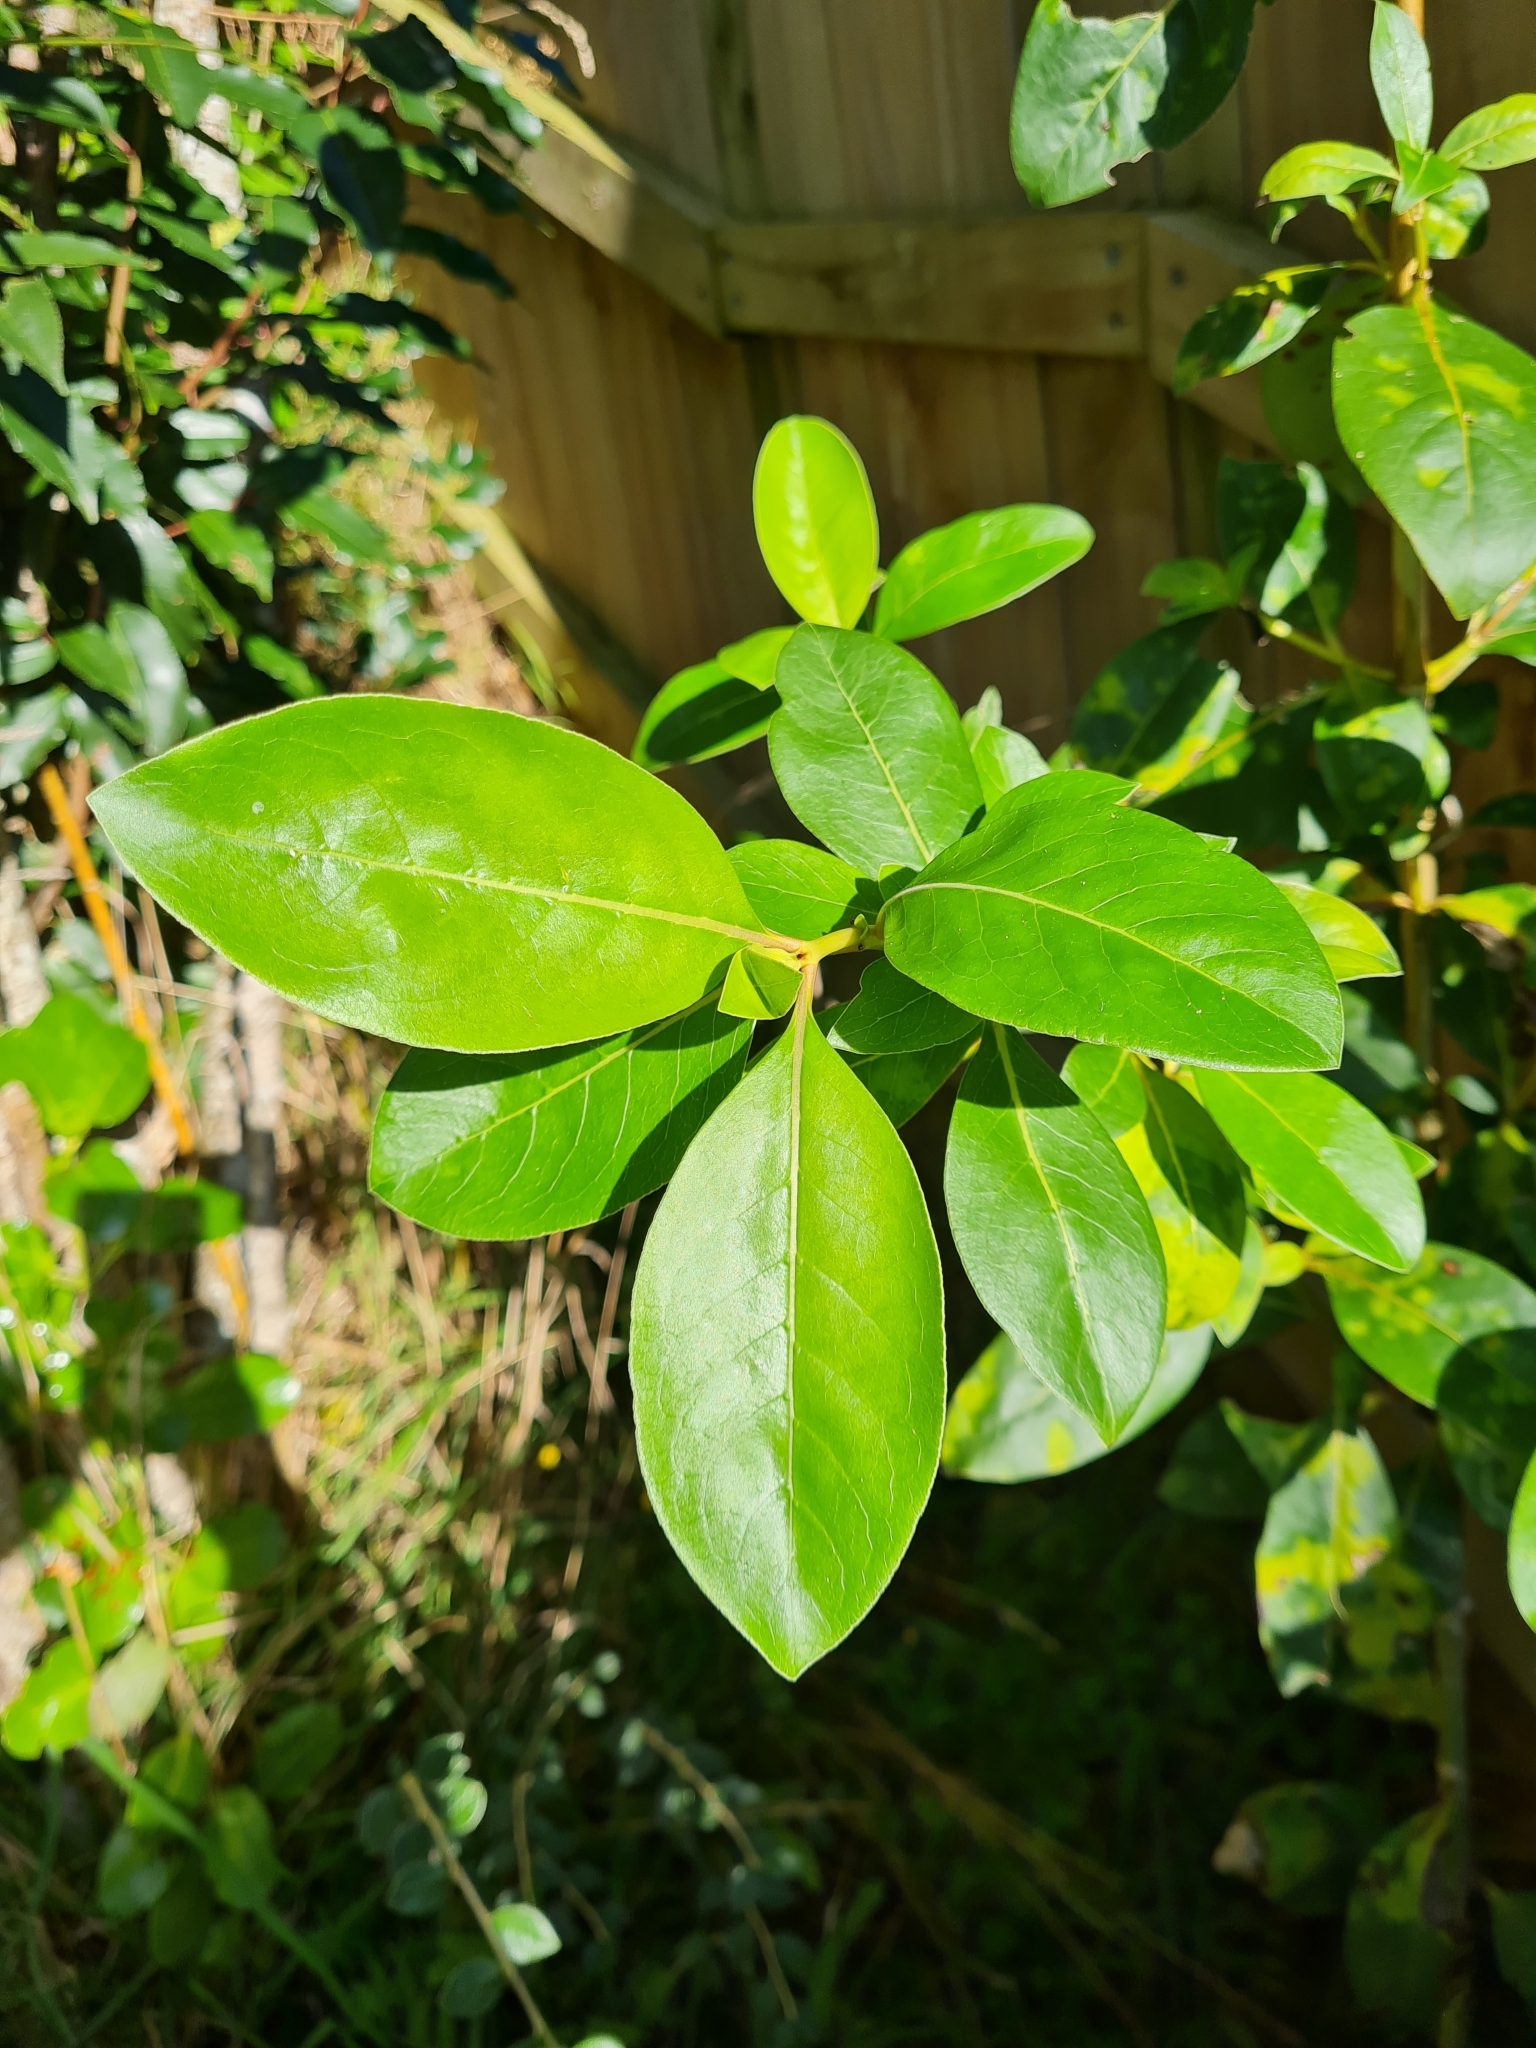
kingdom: Plantae
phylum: Tracheophyta
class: Magnoliopsida
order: Gentianales
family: Rubiaceae
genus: Coprosma
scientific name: Coprosma robusta
